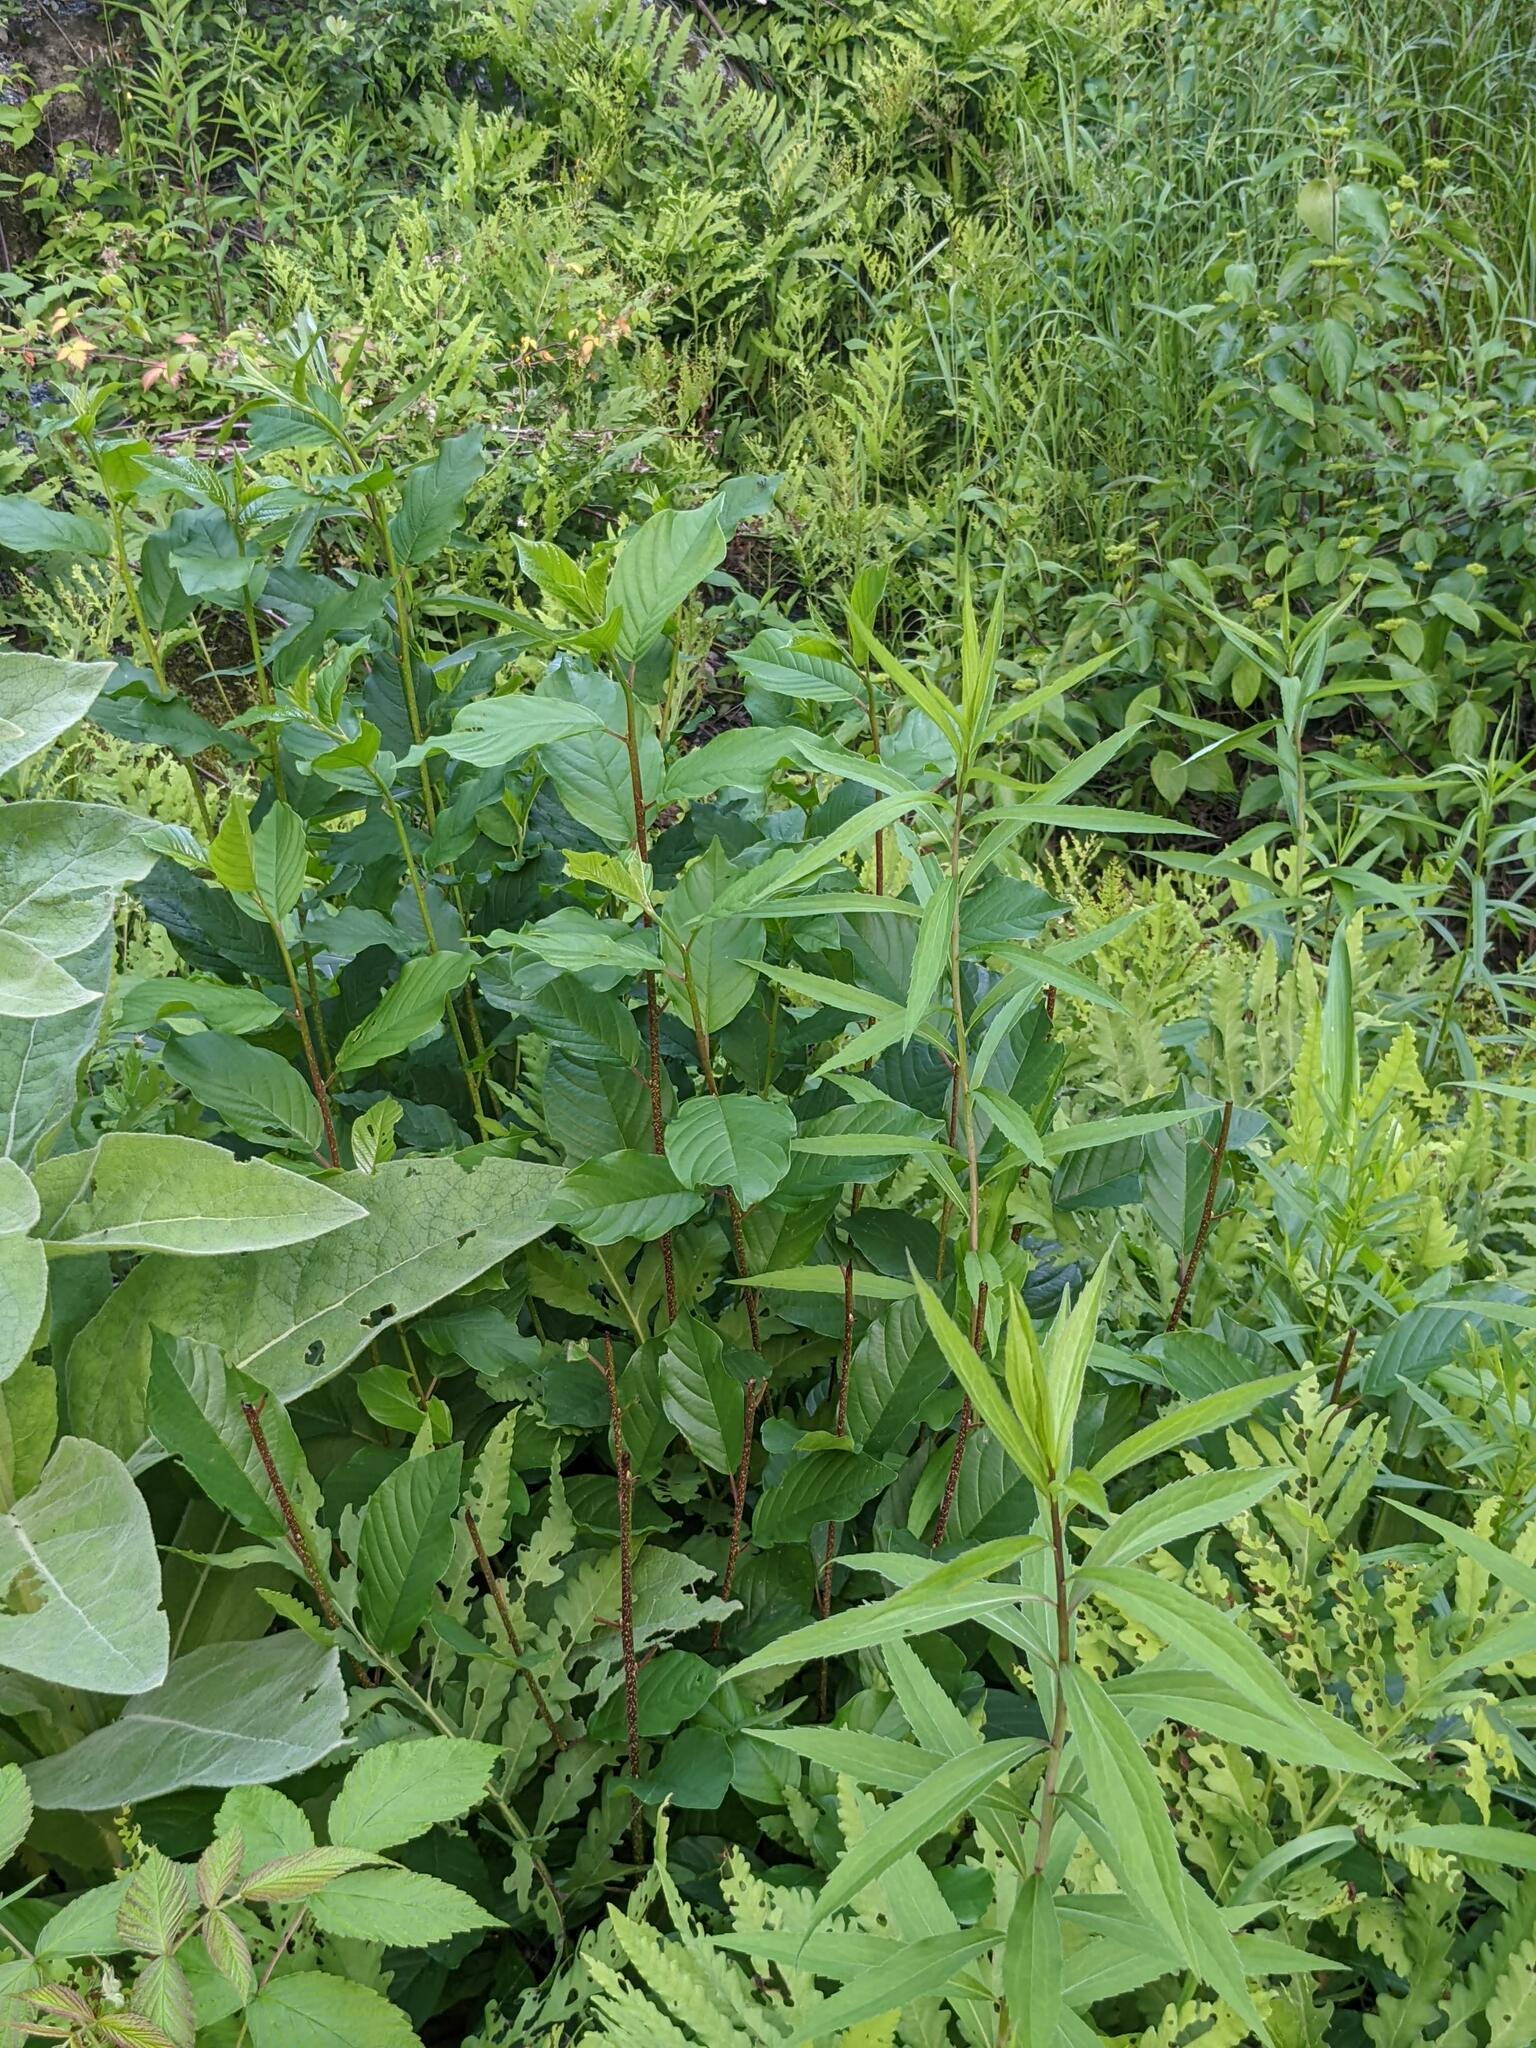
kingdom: Plantae
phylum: Tracheophyta
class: Magnoliopsida
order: Rosales
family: Rhamnaceae
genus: Frangula
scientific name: Frangula alnus
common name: Alder buckthorn
